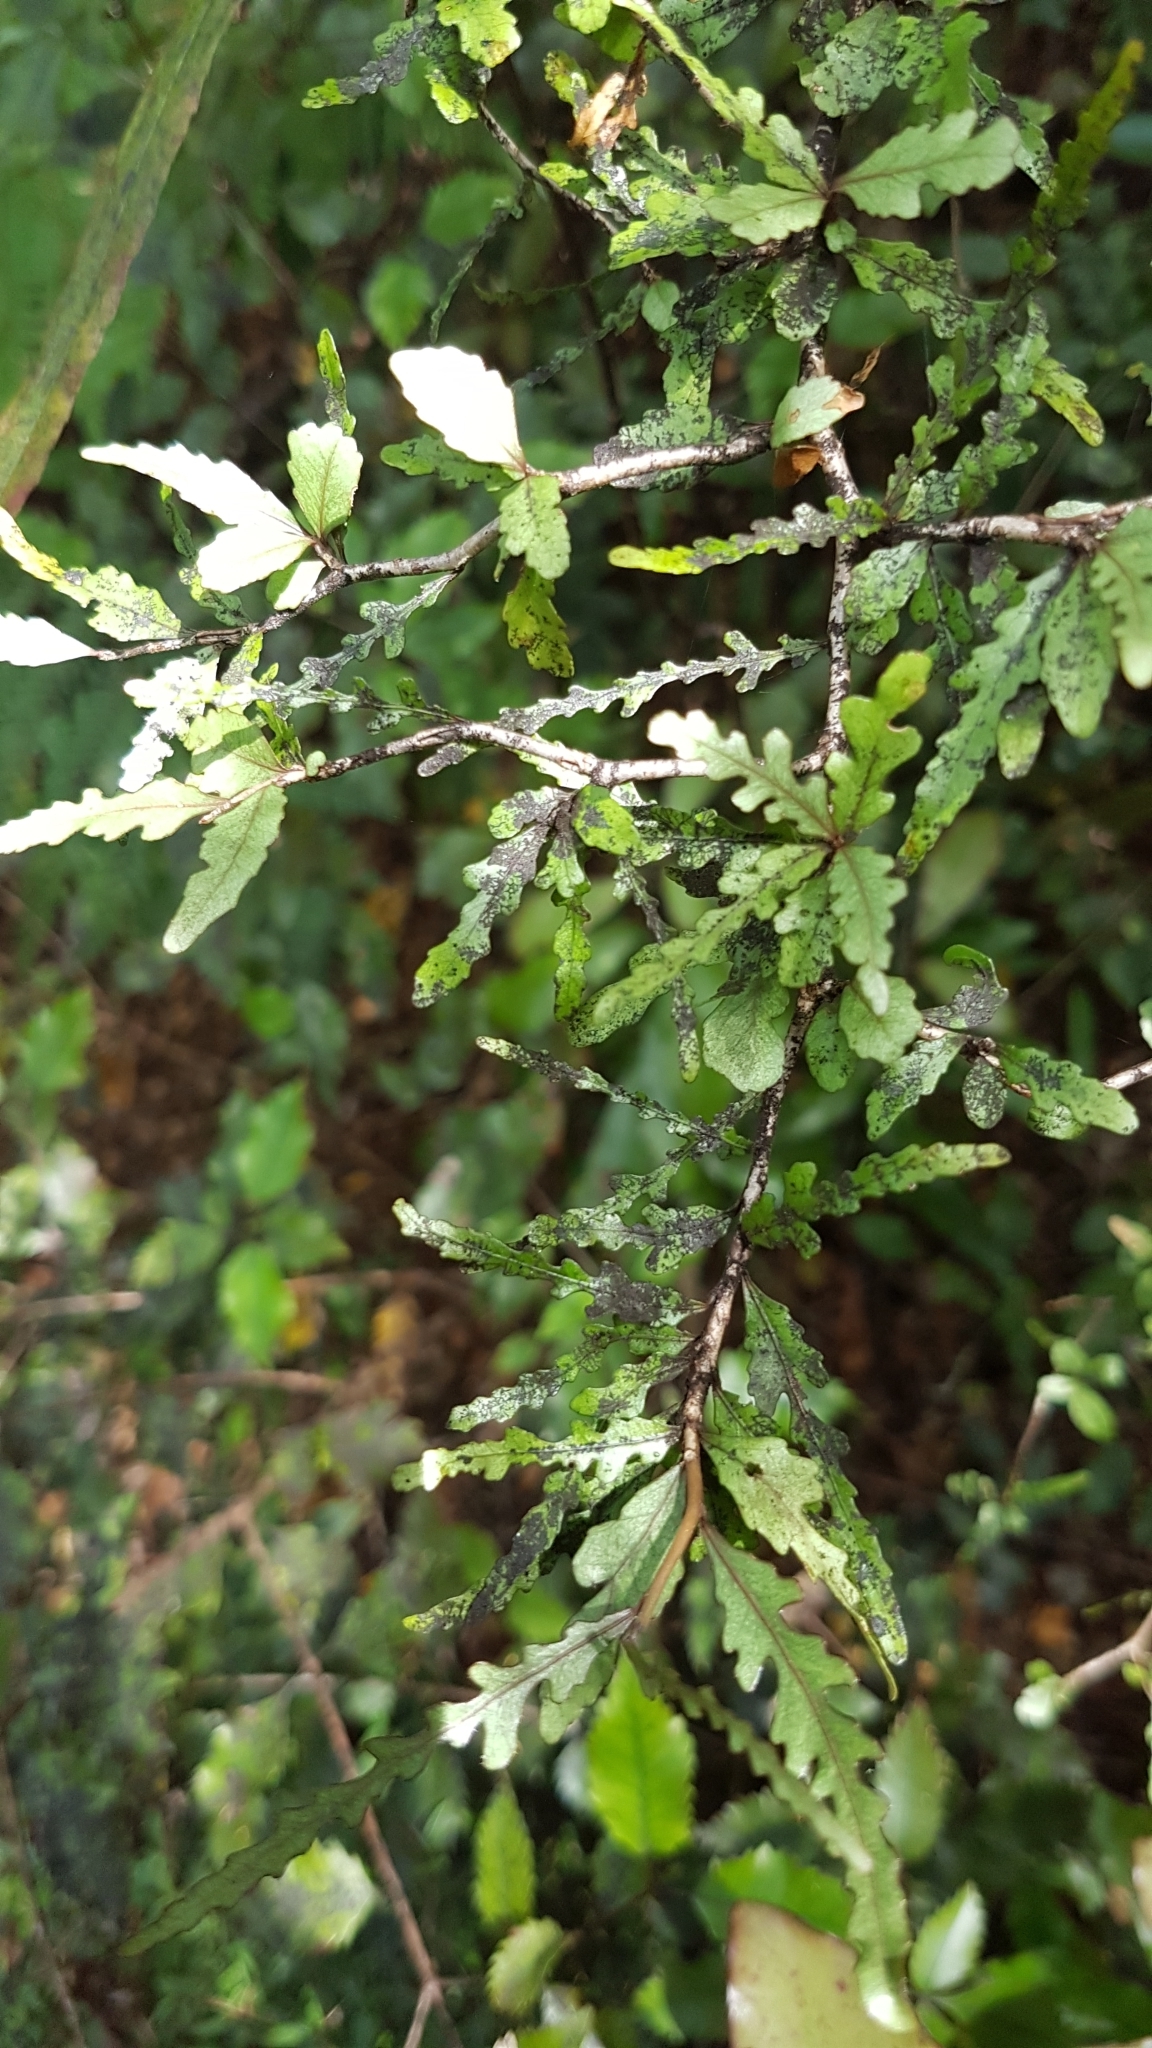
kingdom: Plantae
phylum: Tracheophyta
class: Magnoliopsida
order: Oxalidales
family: Elaeocarpaceae
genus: Elaeocarpus
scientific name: Elaeocarpus hookerianus
